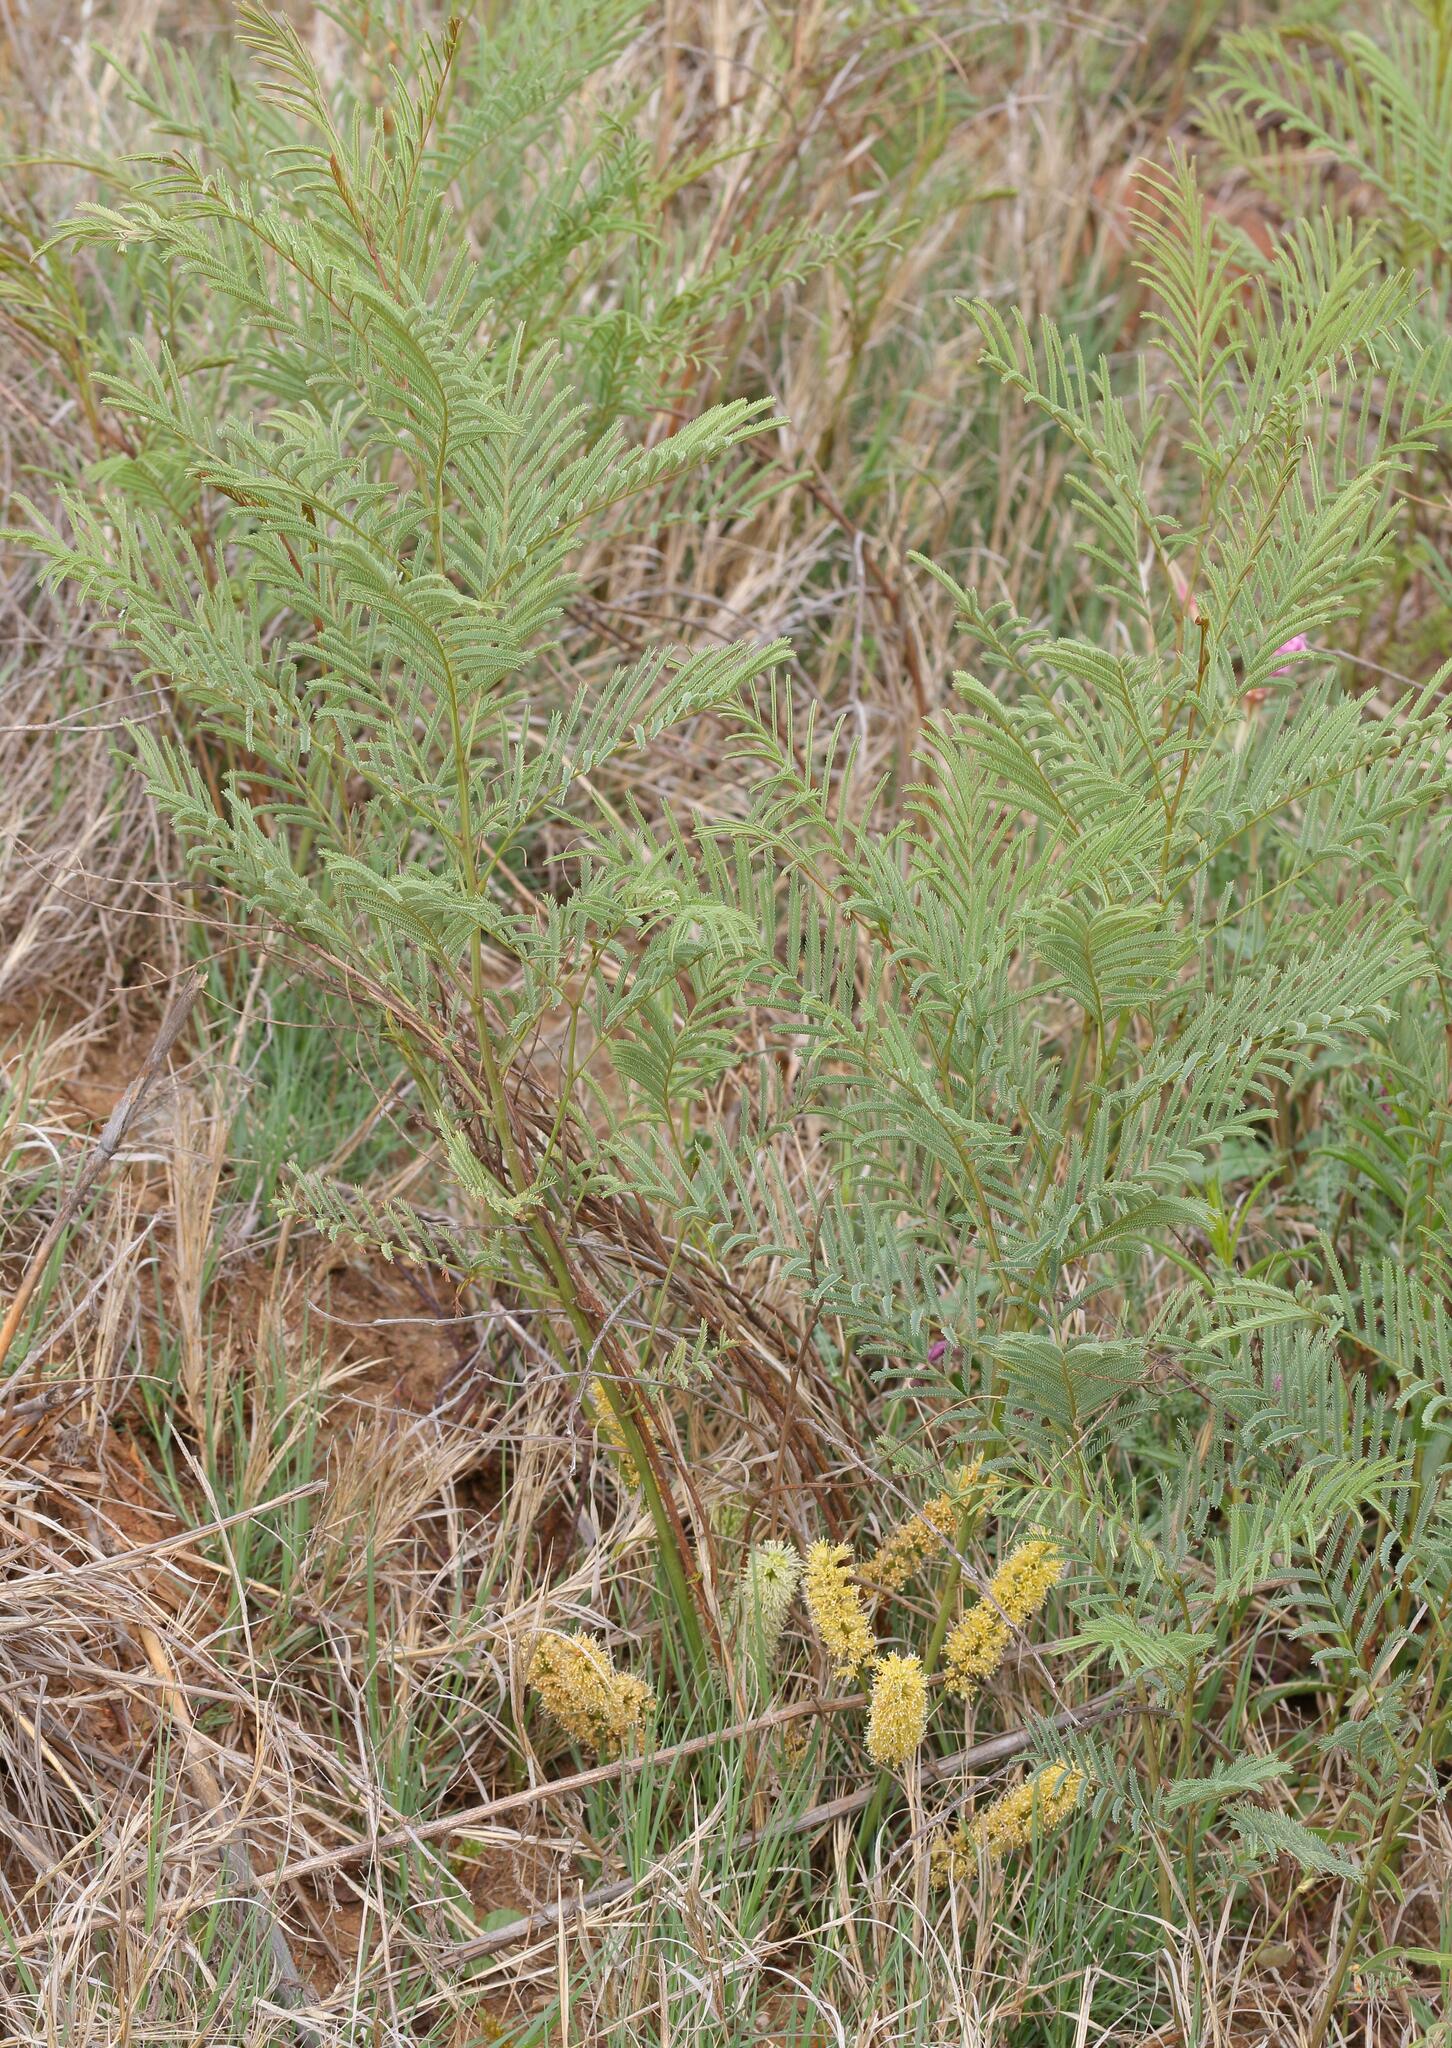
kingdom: Plantae
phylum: Tracheophyta
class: Magnoliopsida
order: Fabales
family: Fabaceae
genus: Elephantorrhiza
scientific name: Elephantorrhiza elephantina
